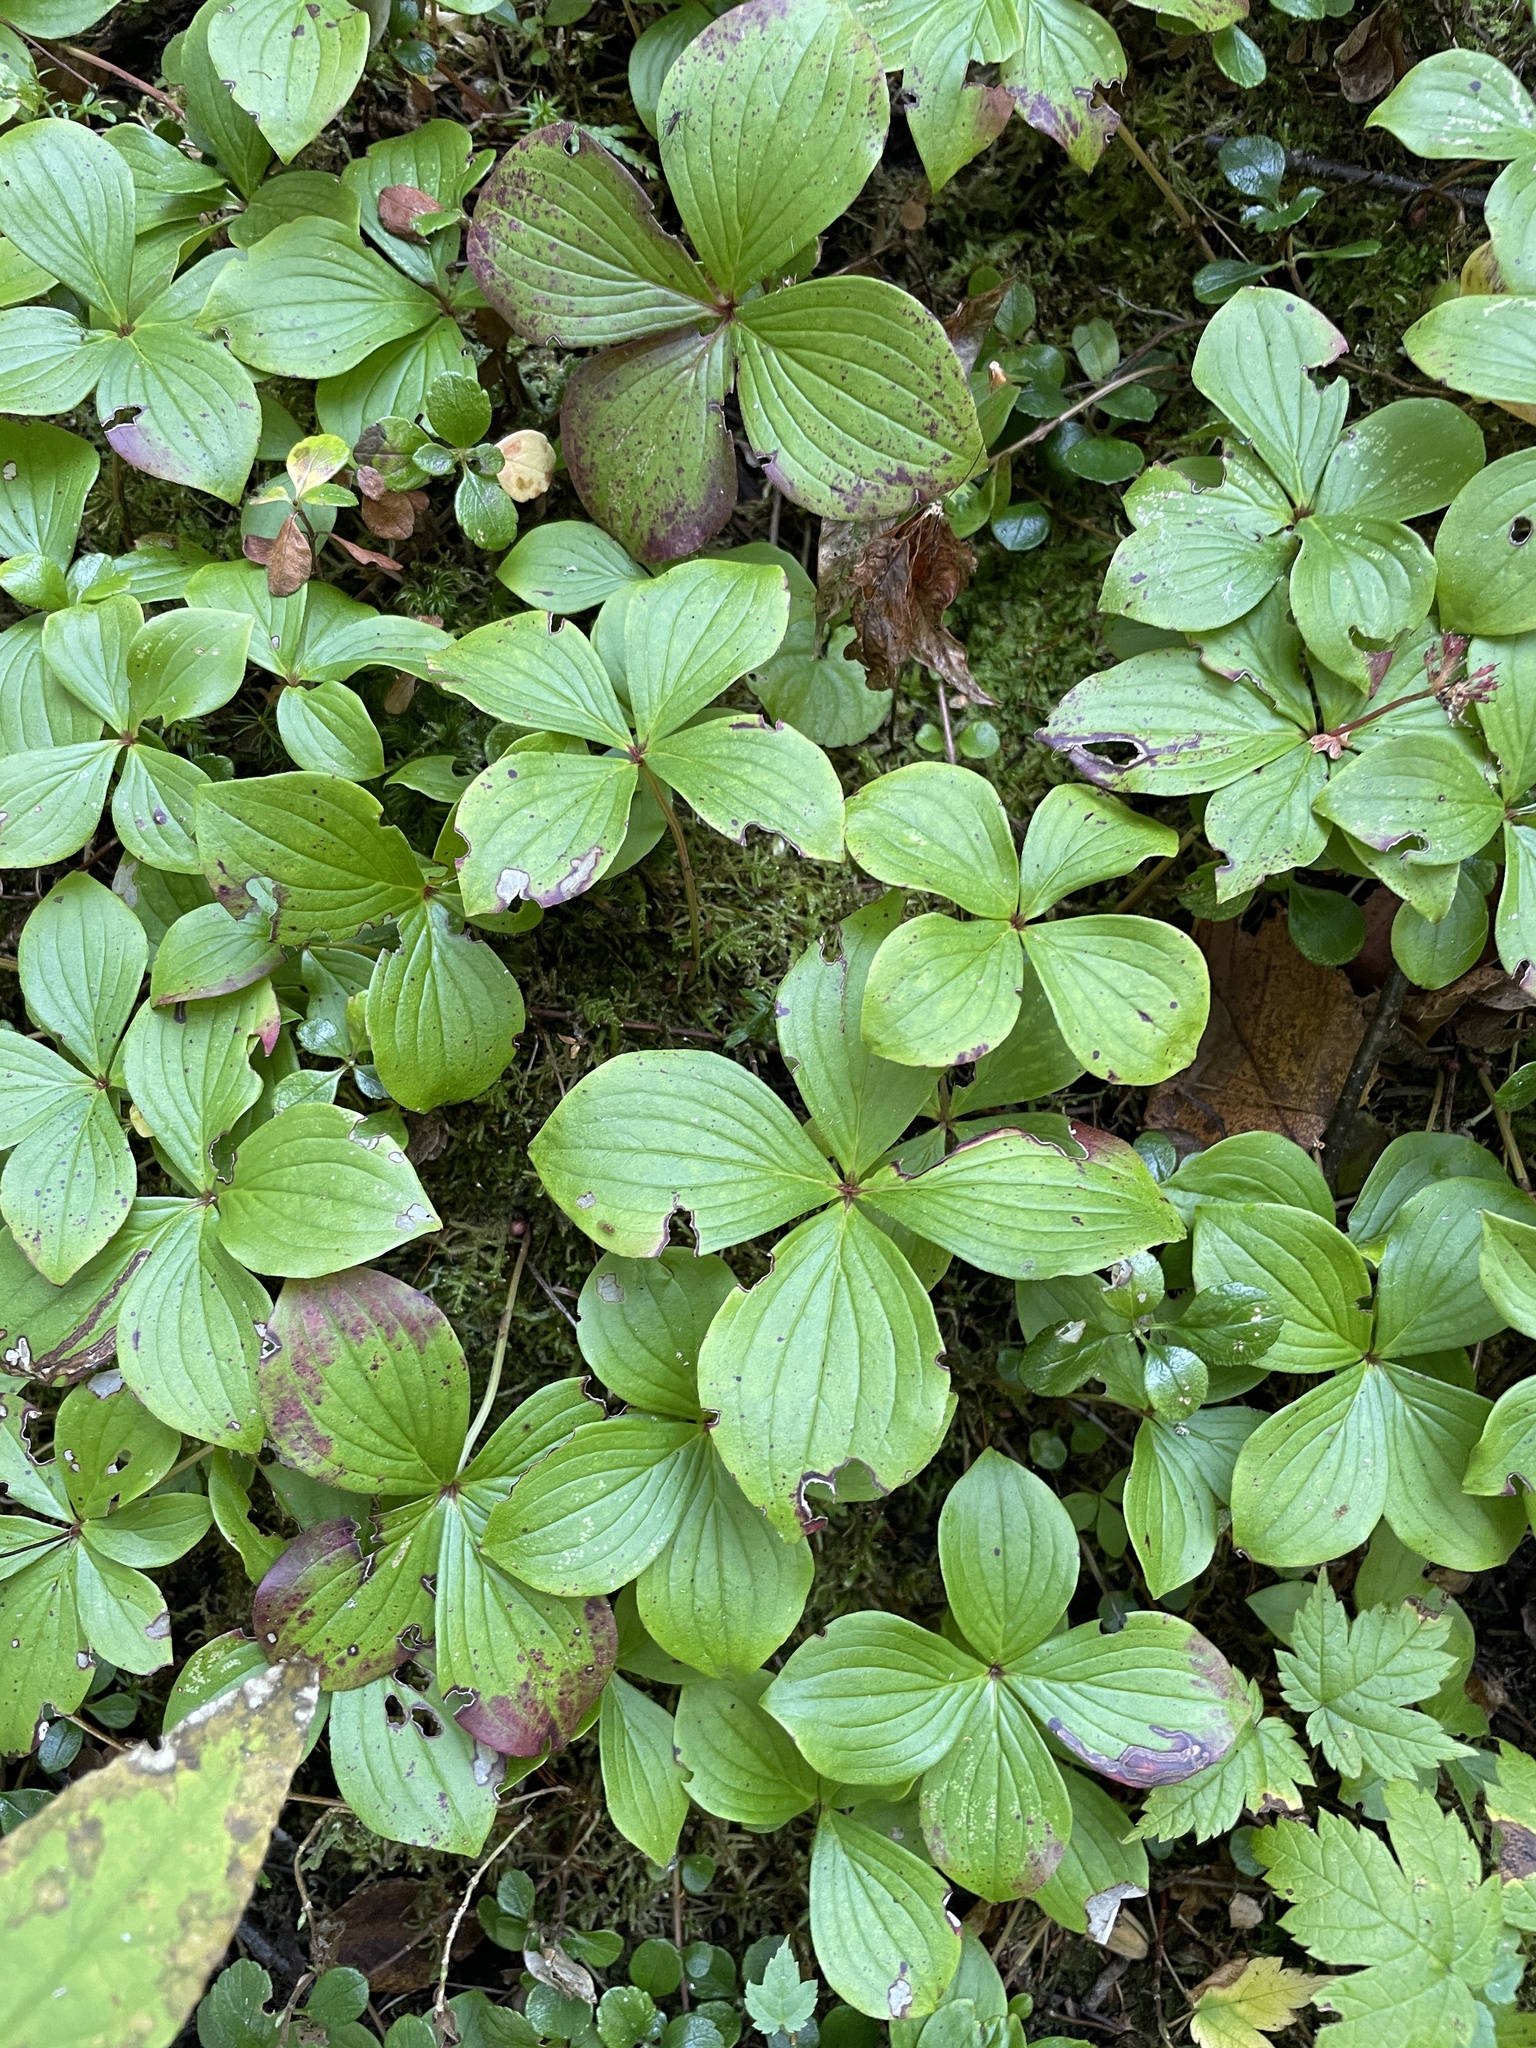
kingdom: Plantae
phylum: Tracheophyta
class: Magnoliopsida
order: Cornales
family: Cornaceae
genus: Cornus
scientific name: Cornus canadensis
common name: Creeping dogwood
